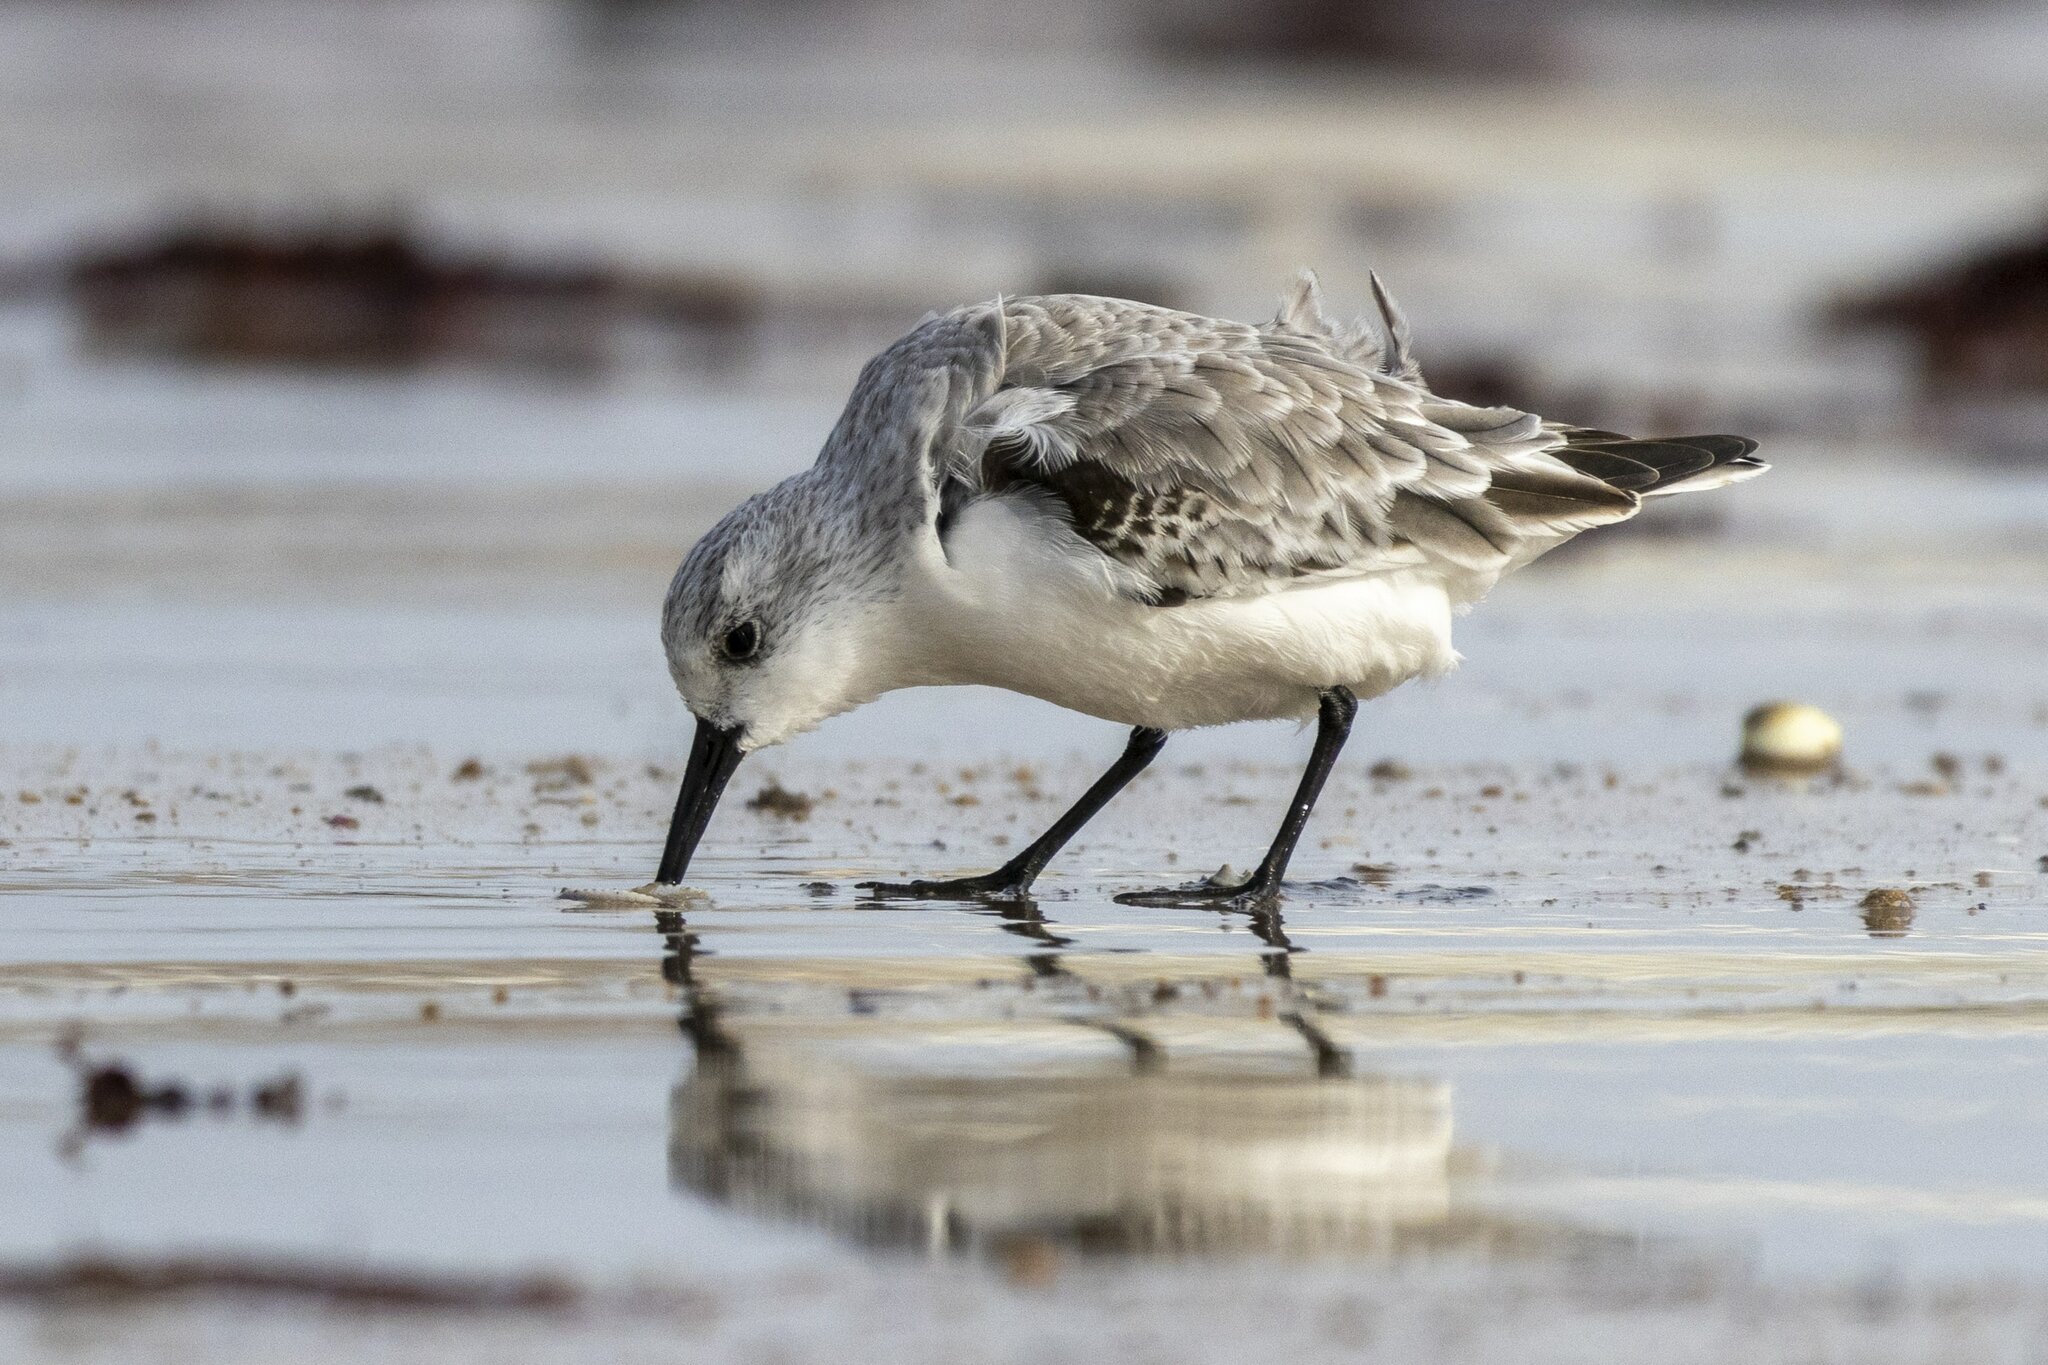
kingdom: Animalia
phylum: Chordata
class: Aves
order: Charadriiformes
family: Scolopacidae
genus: Calidris
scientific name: Calidris alba
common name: Sanderling
